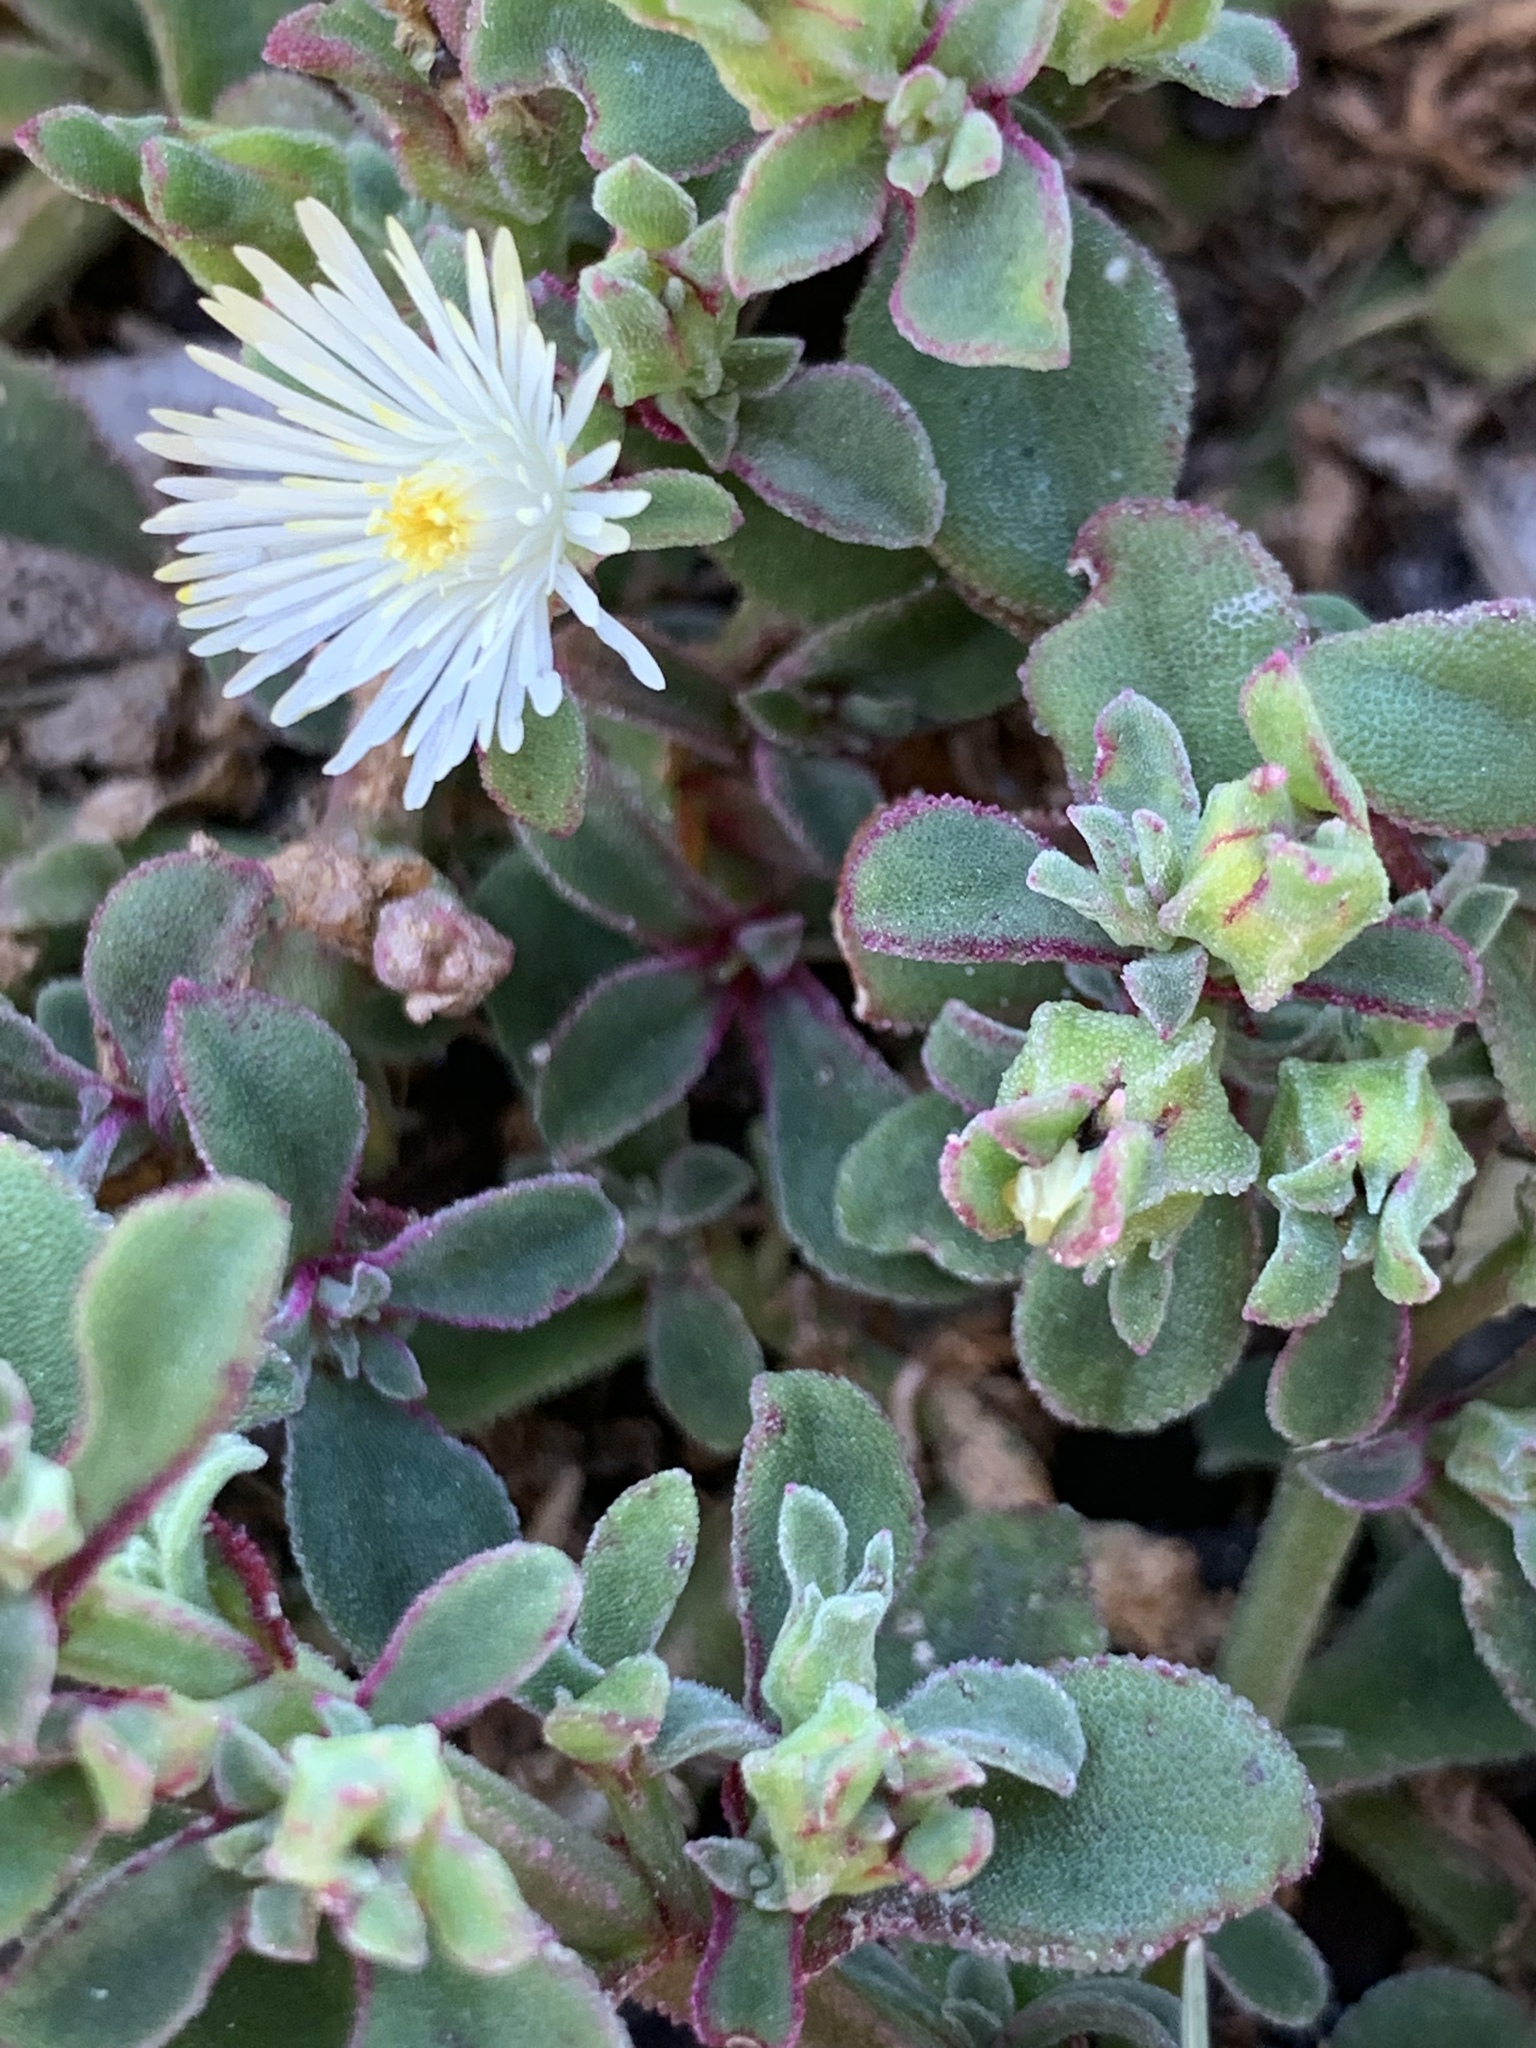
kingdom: Plantae
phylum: Tracheophyta
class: Magnoliopsida
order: Caryophyllales
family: Aizoaceae
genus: Mesembryanthemum
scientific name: Mesembryanthemum aitonis
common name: Angled iceplant
